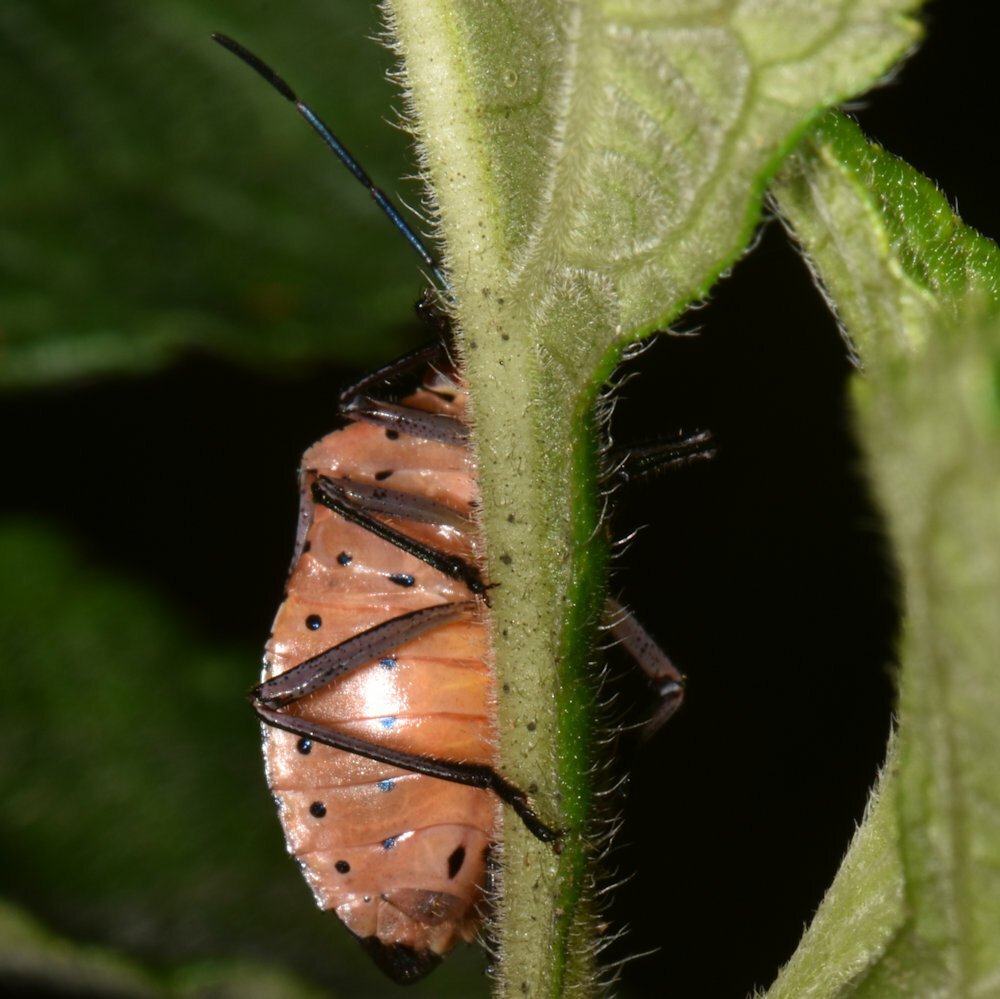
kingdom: Animalia
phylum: Arthropoda
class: Insecta
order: Hemiptera
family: Pentatomidae
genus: Pellaea
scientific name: Pellaea stictica
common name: Stink bug
